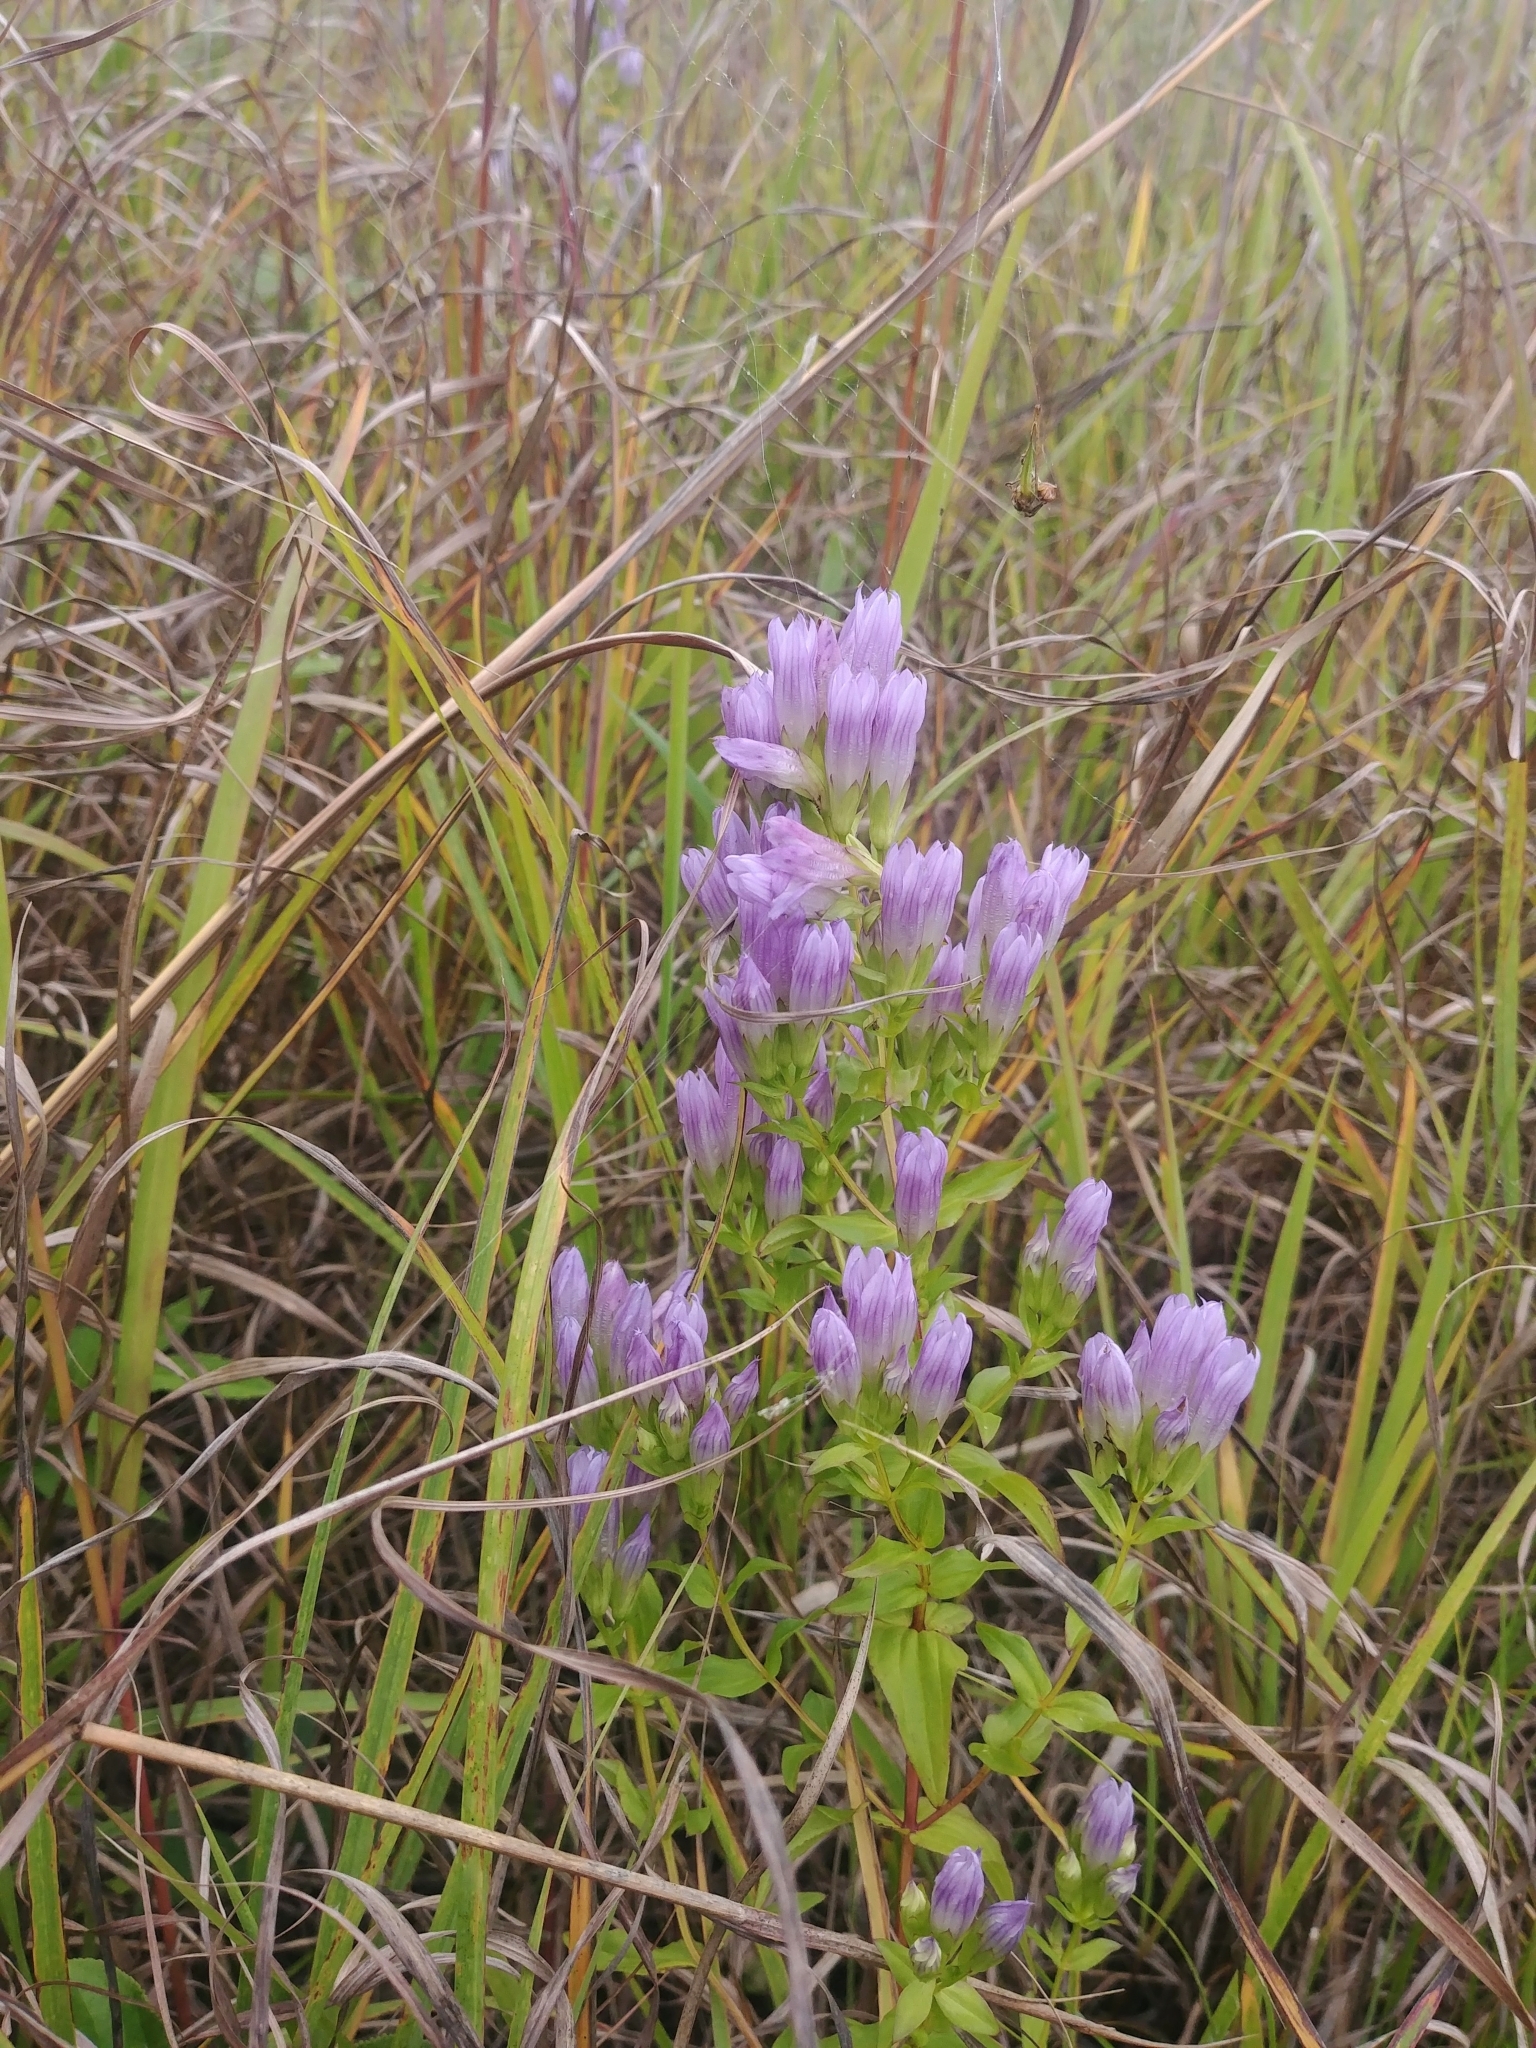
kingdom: Plantae
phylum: Tracheophyta
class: Magnoliopsida
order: Gentianales
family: Gentianaceae
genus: Gentianella
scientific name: Gentianella quinquefolia
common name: Agueweed
